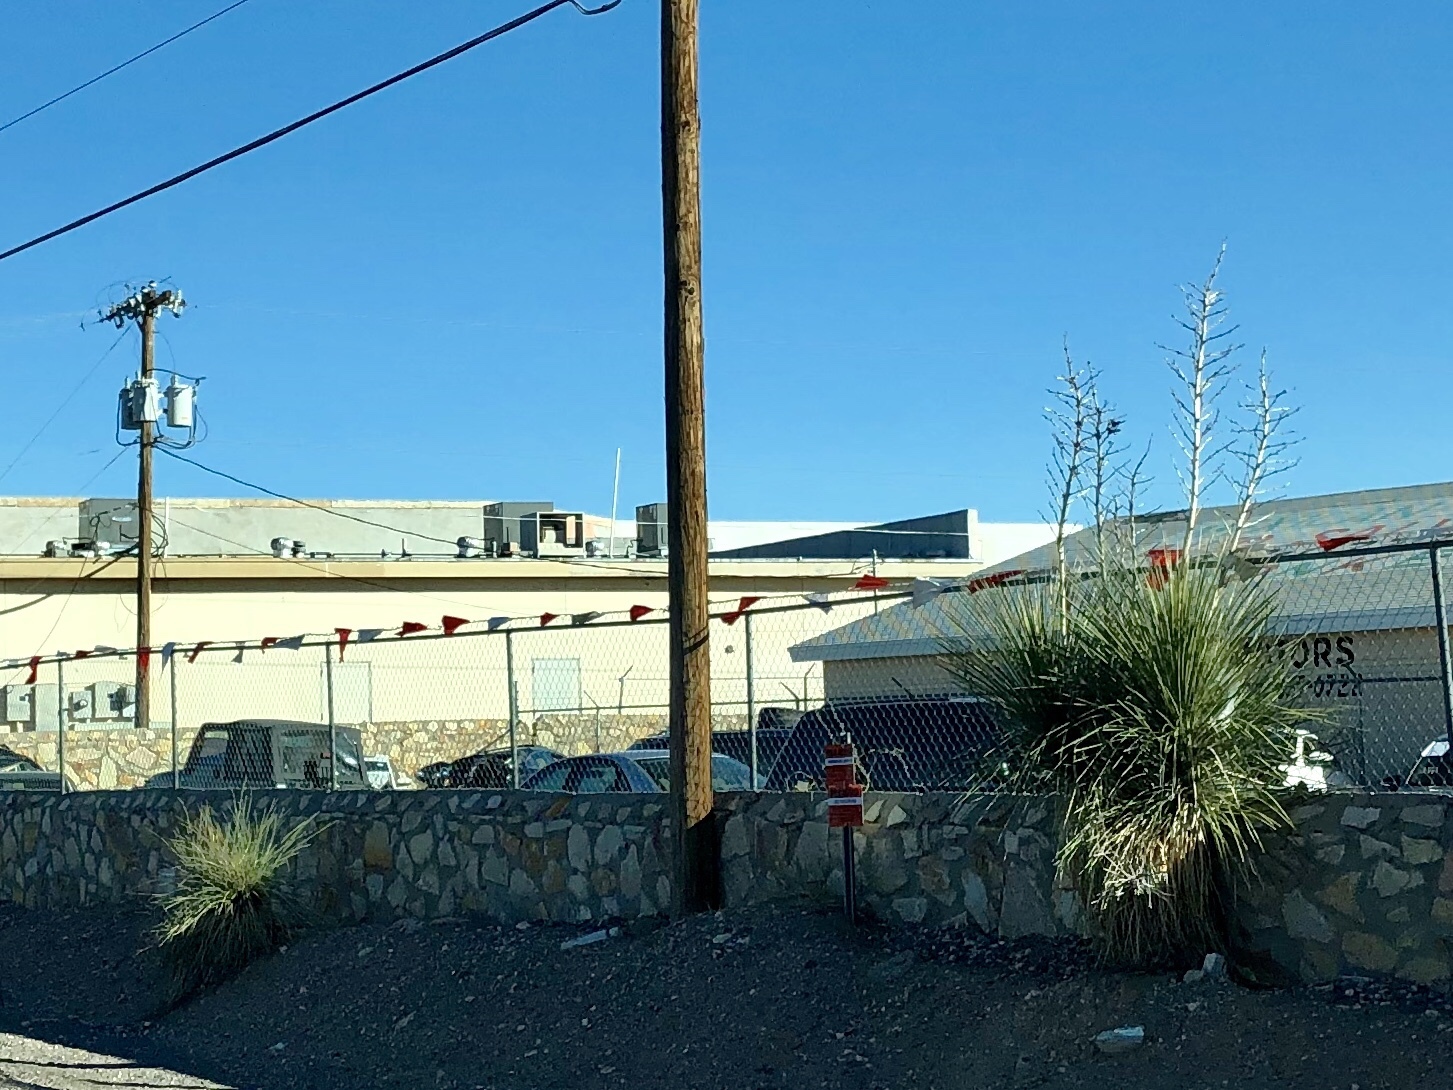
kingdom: Plantae
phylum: Tracheophyta
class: Liliopsida
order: Asparagales
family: Asparagaceae
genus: Yucca
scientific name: Yucca elata
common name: Palmella
